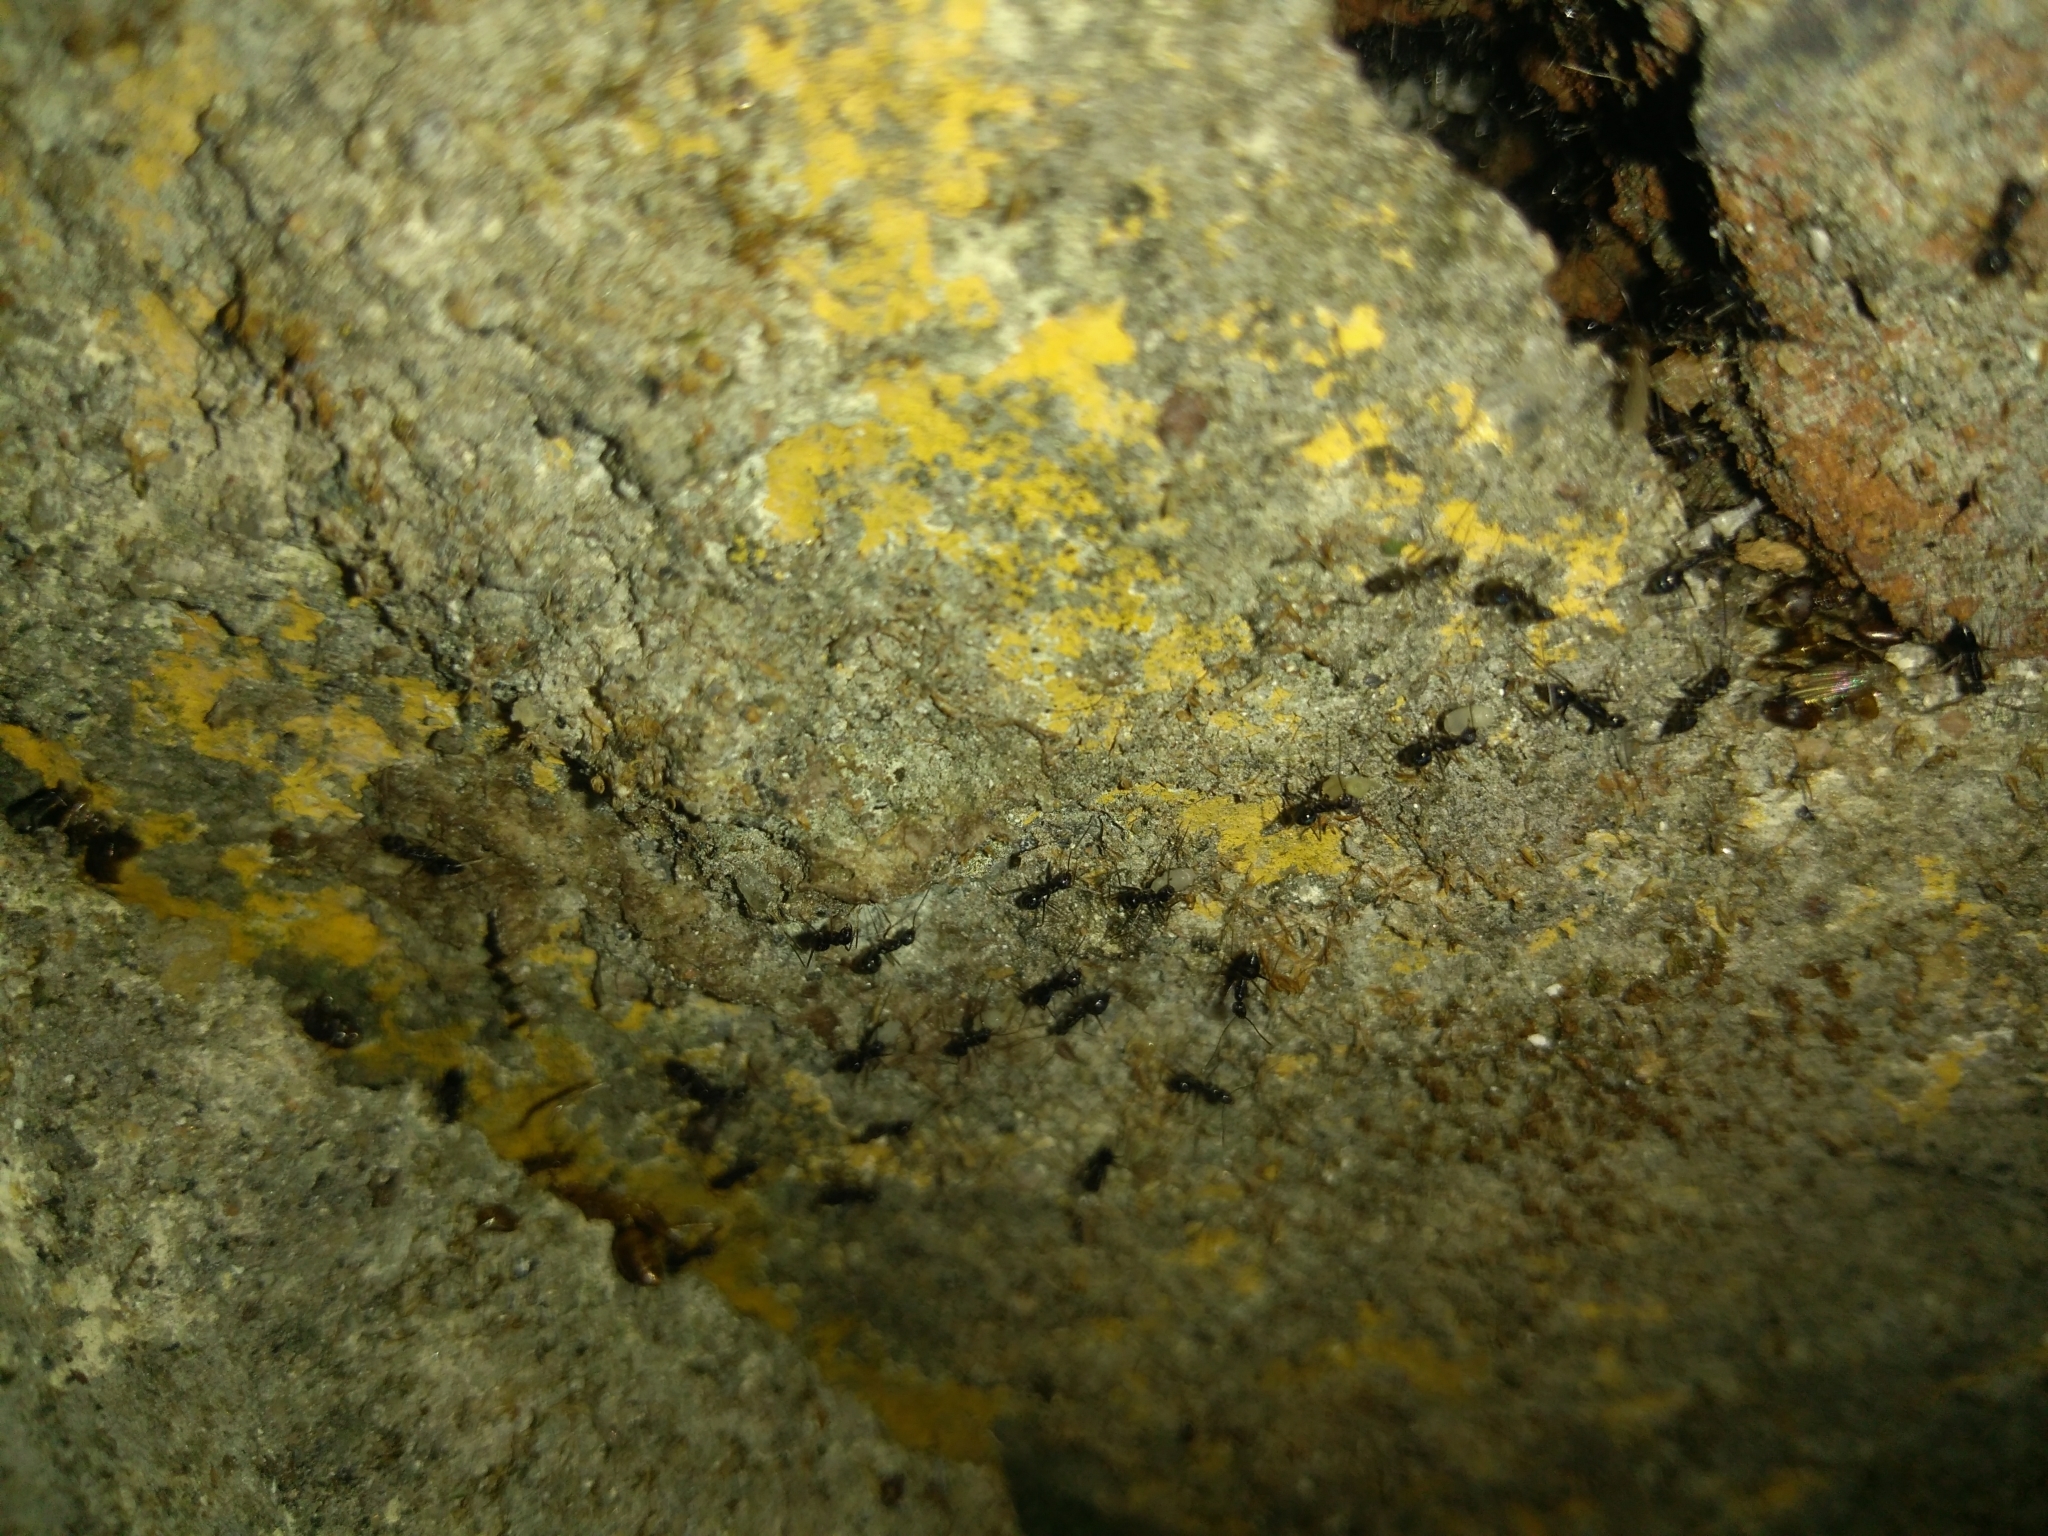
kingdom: Animalia
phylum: Arthropoda
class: Insecta
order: Hymenoptera
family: Formicidae
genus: Paratrechina
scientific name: Paratrechina longicornis
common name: Longhorned crazy ant
